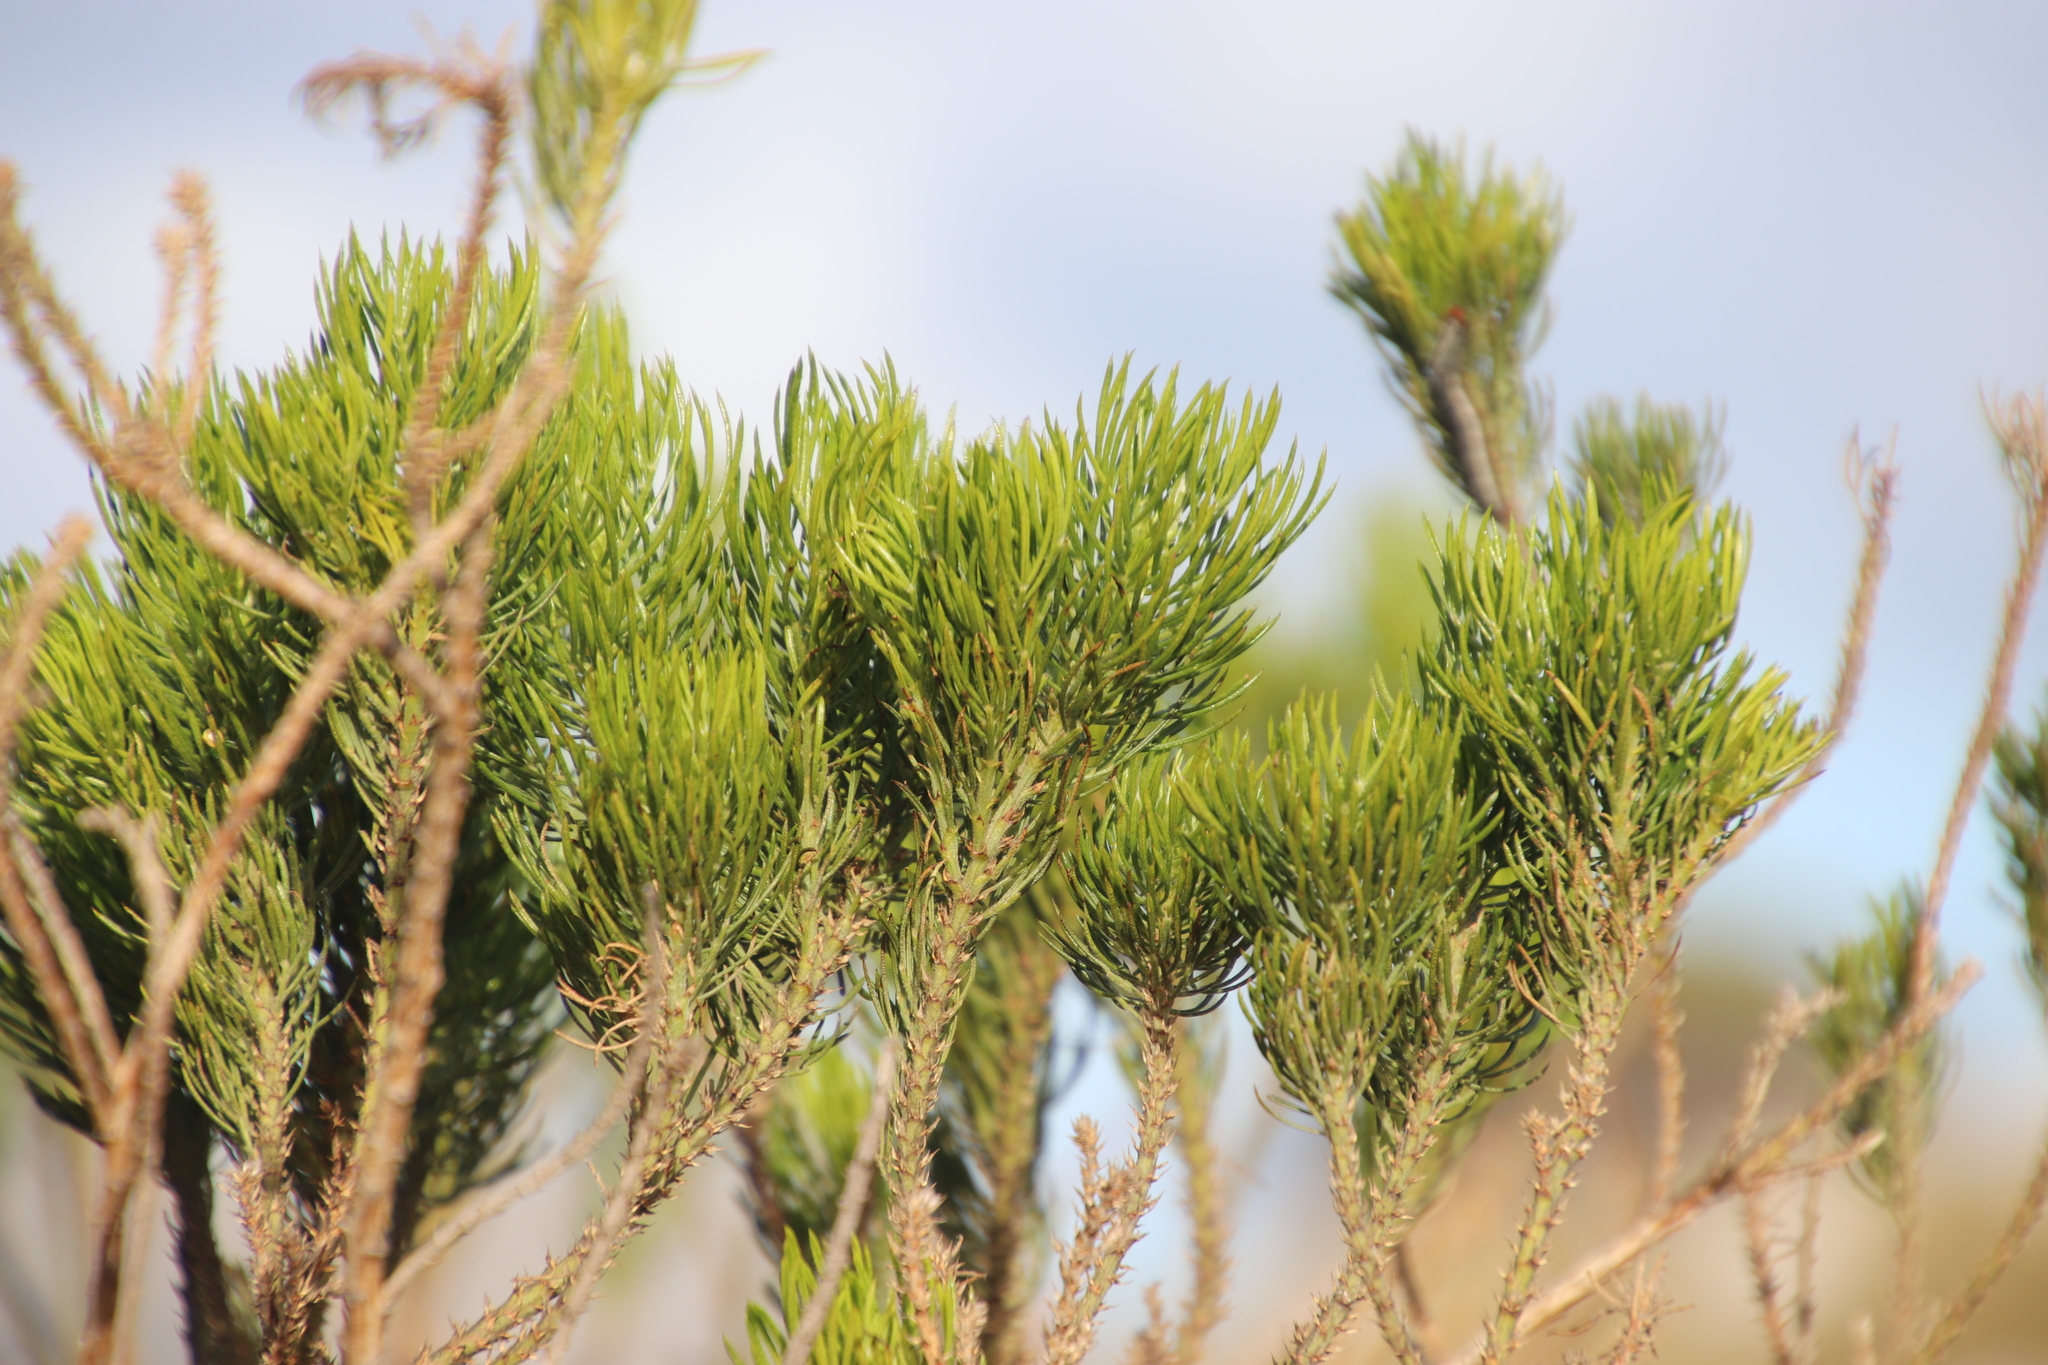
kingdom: Plantae
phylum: Tracheophyta
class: Magnoliopsida
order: Fabales
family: Fabaceae
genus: Psoralea
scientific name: Psoralea pinnata
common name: African scurfpea
